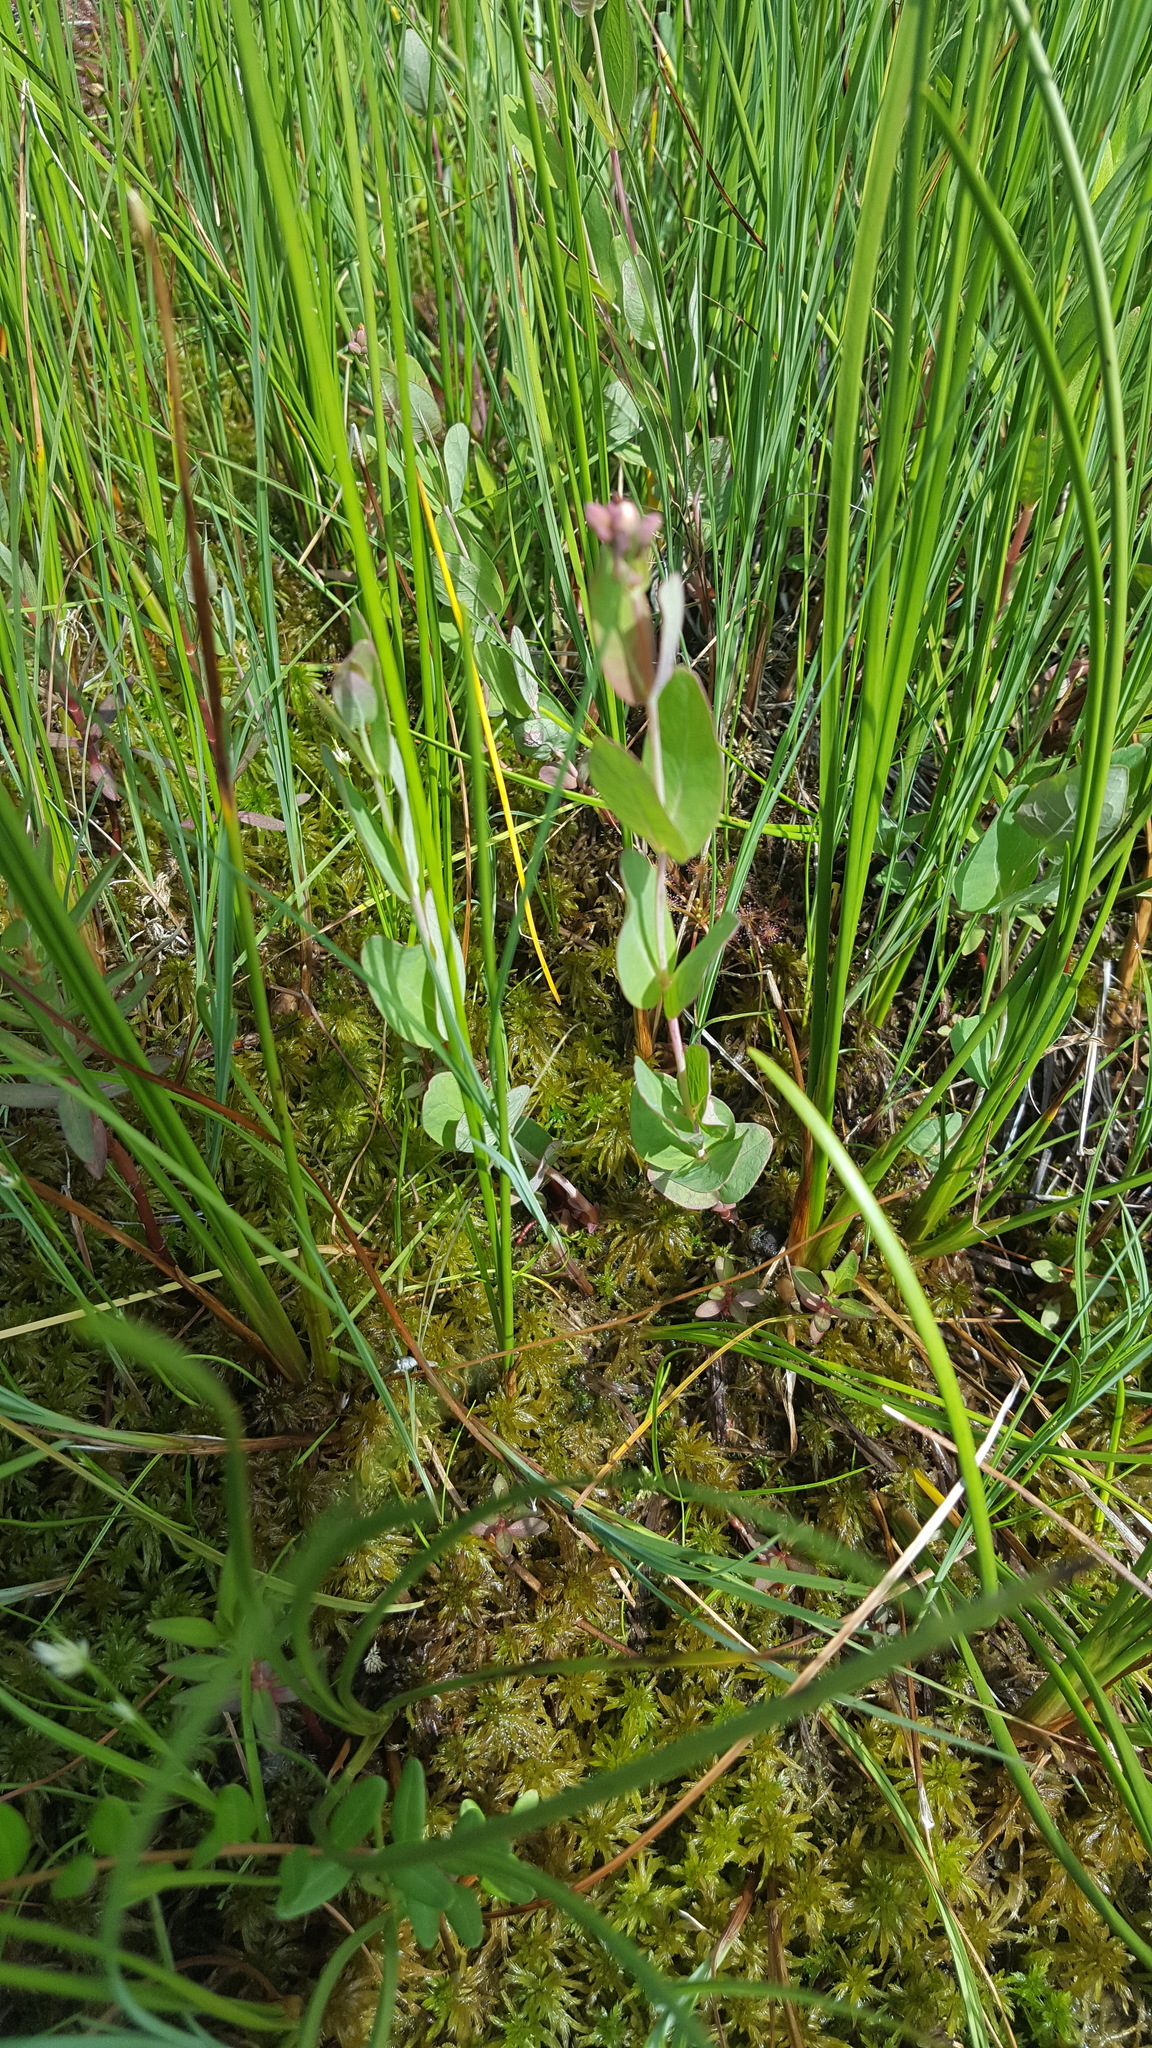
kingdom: Plantae
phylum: Tracheophyta
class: Magnoliopsida
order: Malpighiales
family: Hypericaceae
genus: Triadenum
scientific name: Triadenum fraseri
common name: Fraser's marsh st. johnswort
